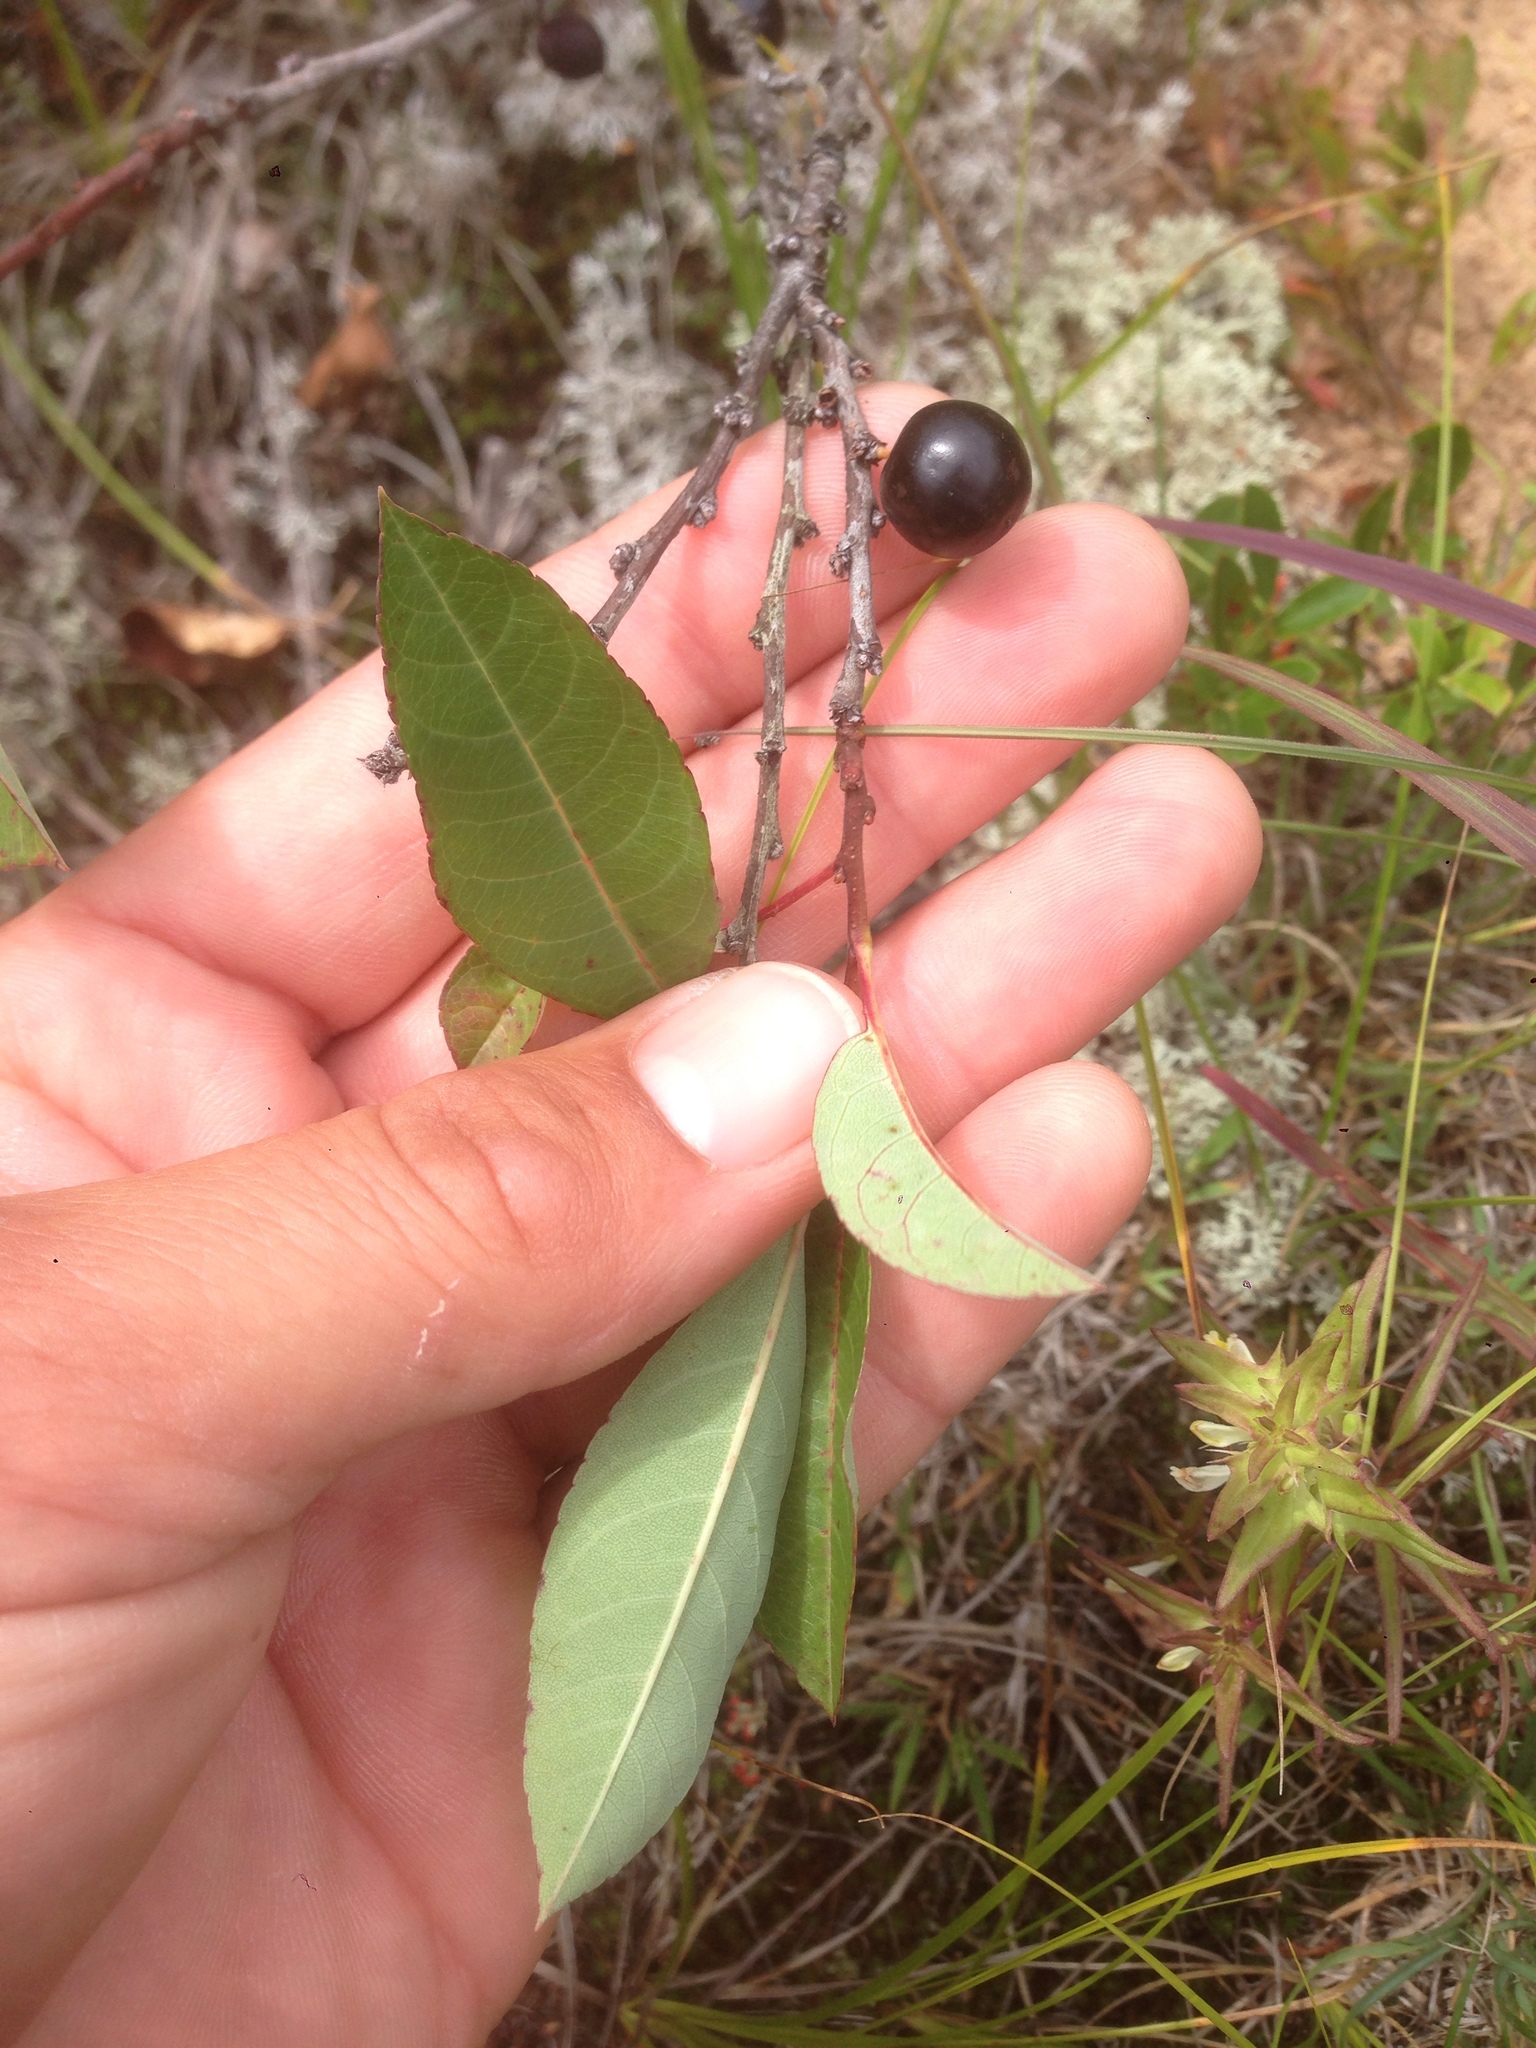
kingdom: Plantae
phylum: Tracheophyta
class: Magnoliopsida
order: Rosales
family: Rosaceae
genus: Prunus
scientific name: Prunus pumila
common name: Dwarf cherry
